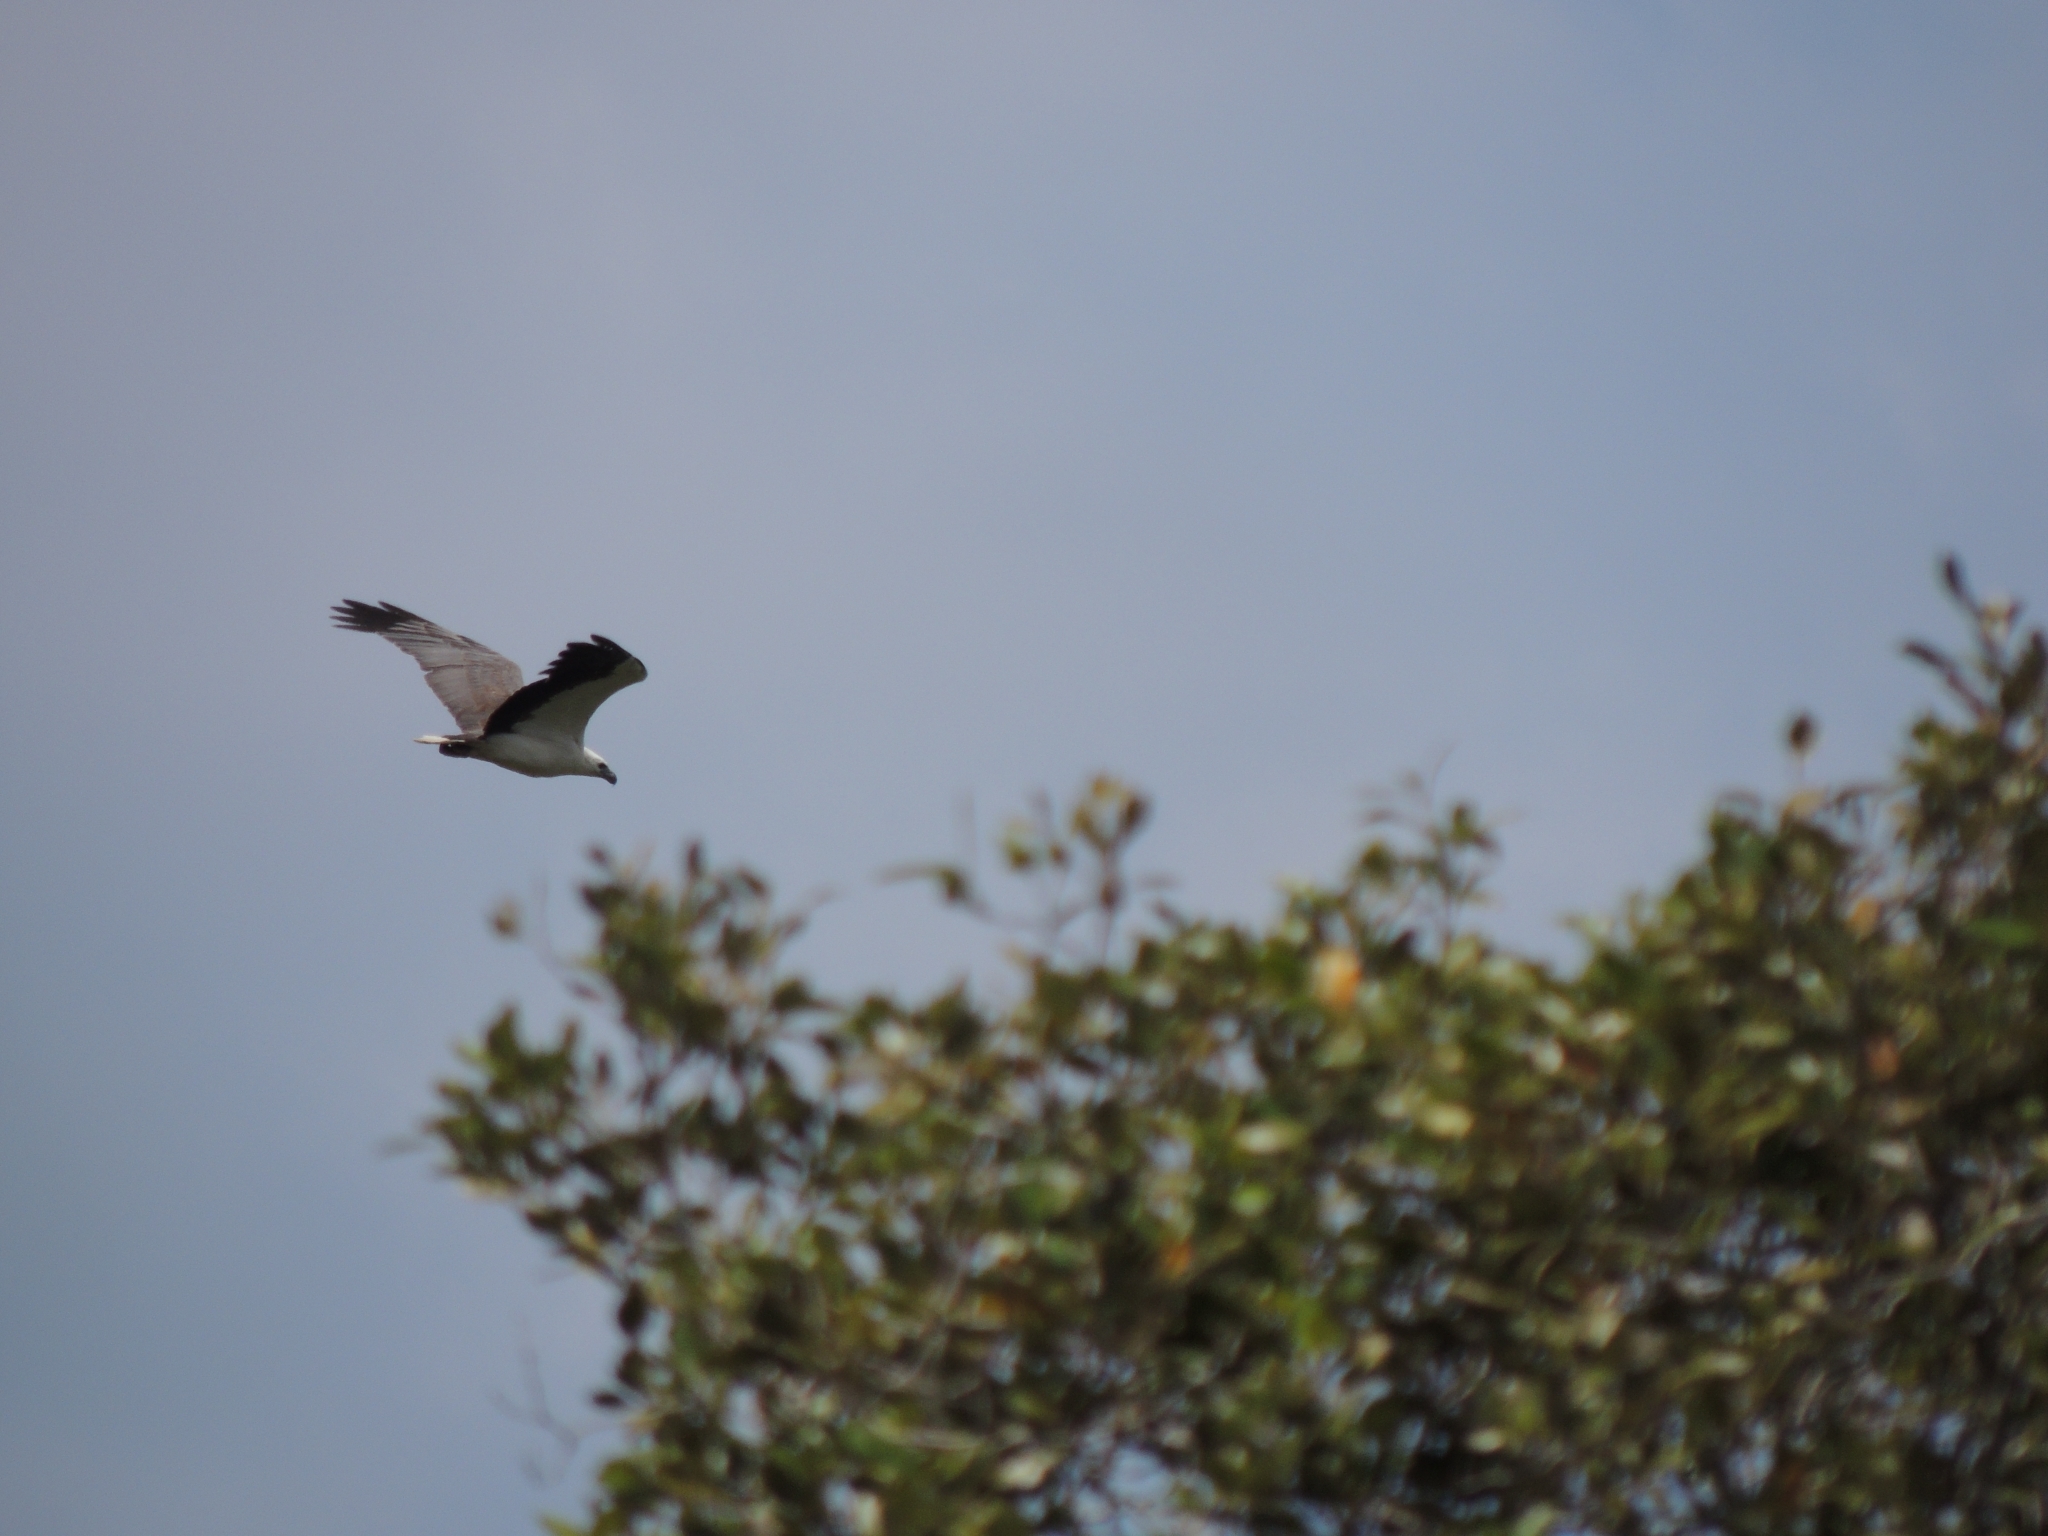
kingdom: Animalia
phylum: Chordata
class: Aves
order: Accipitriformes
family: Accipitridae
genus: Haliaeetus
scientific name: Haliaeetus leucogaster
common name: White-bellied sea eagle
